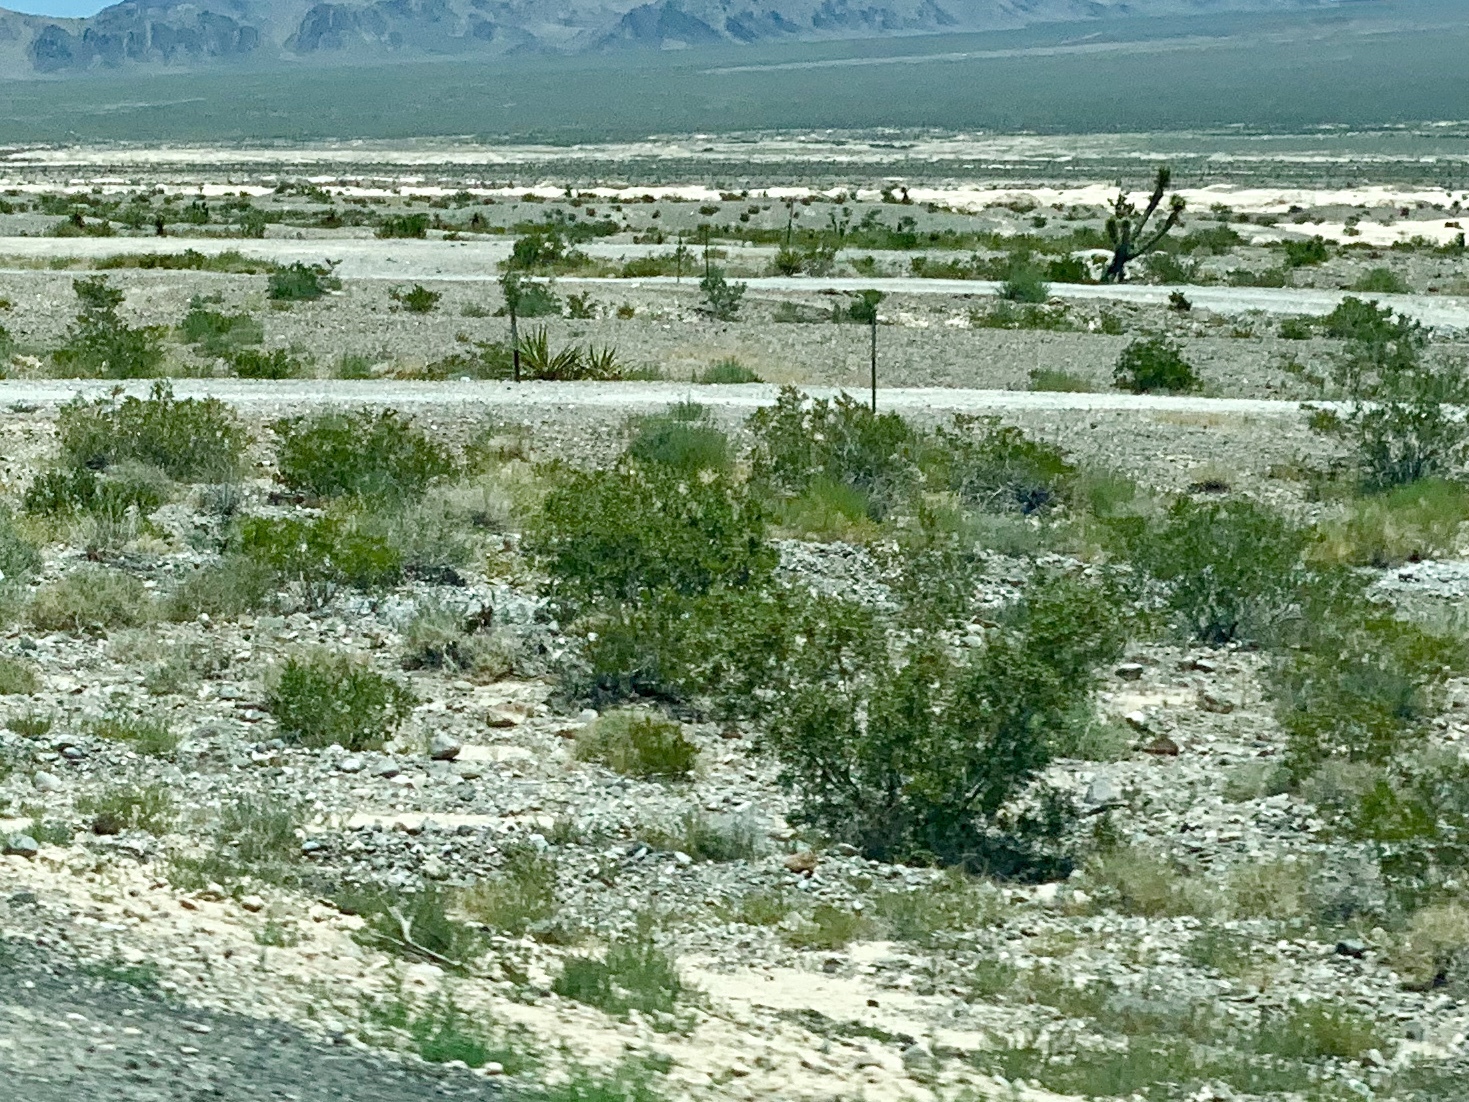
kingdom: Plantae
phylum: Tracheophyta
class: Magnoliopsida
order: Zygophyllales
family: Zygophyllaceae
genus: Larrea
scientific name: Larrea tridentata
